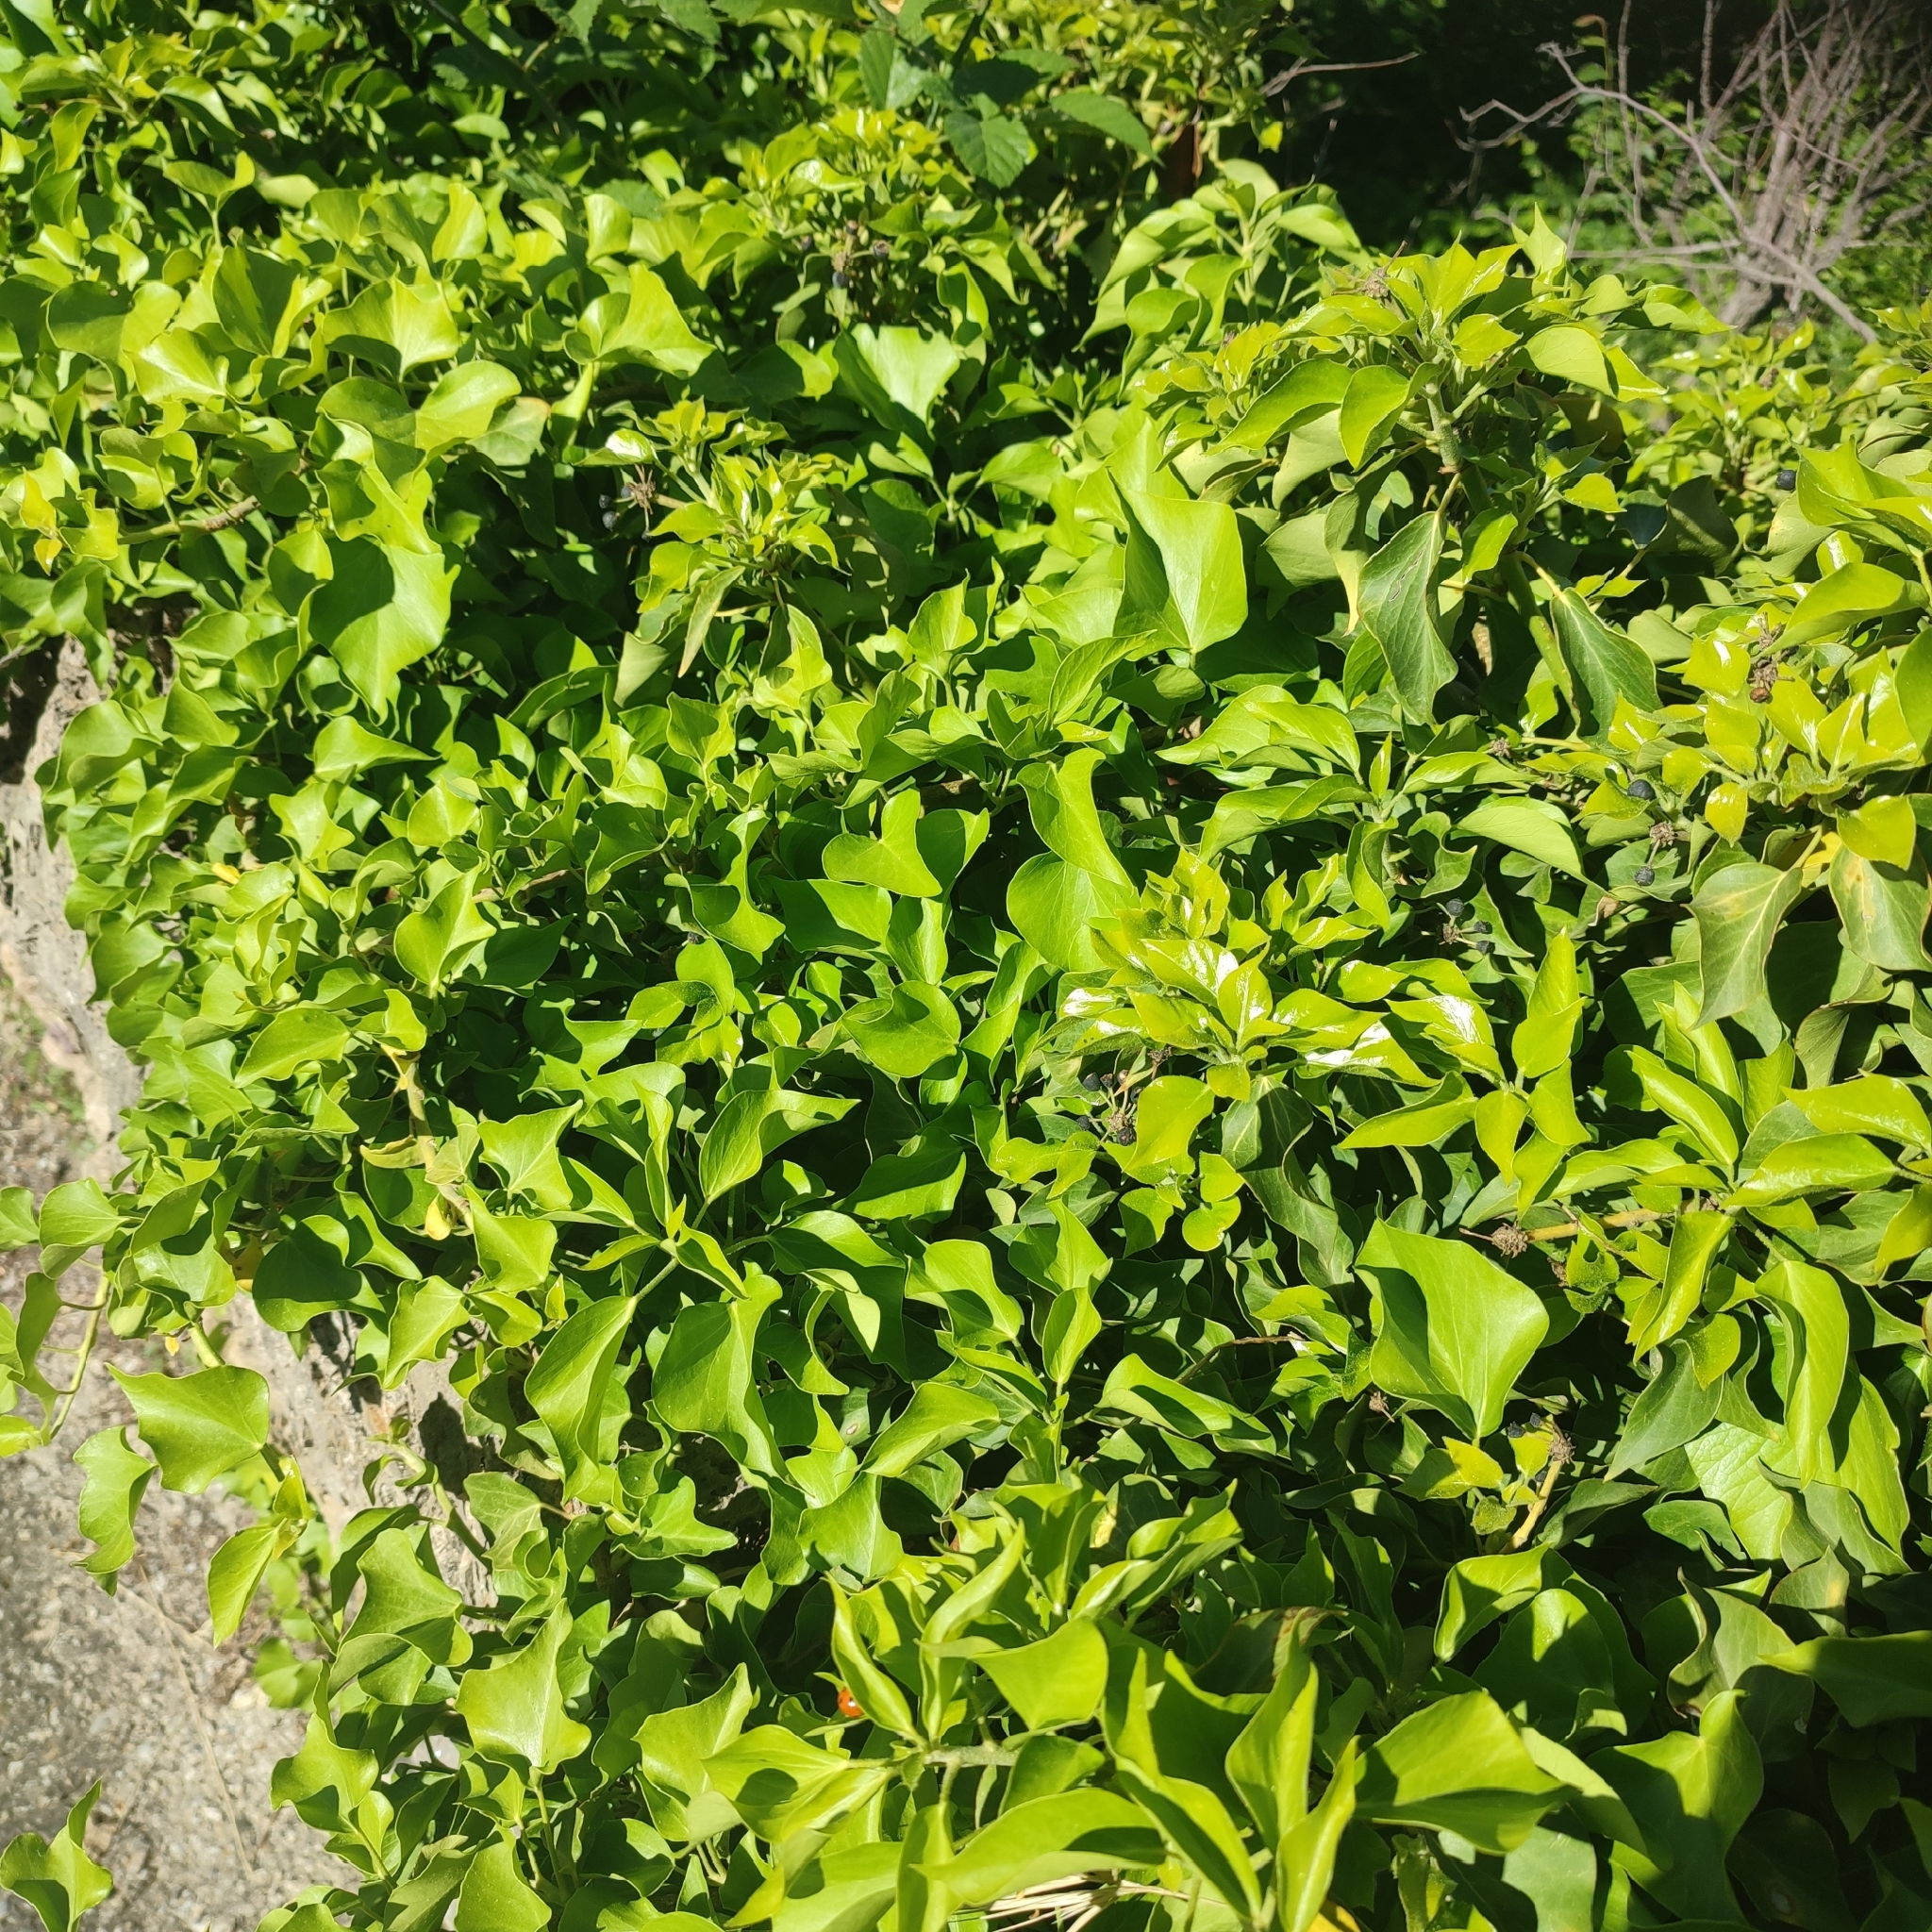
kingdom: Plantae
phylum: Tracheophyta
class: Magnoliopsida
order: Apiales
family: Araliaceae
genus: Hedera
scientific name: Hedera helix
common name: Ivy
